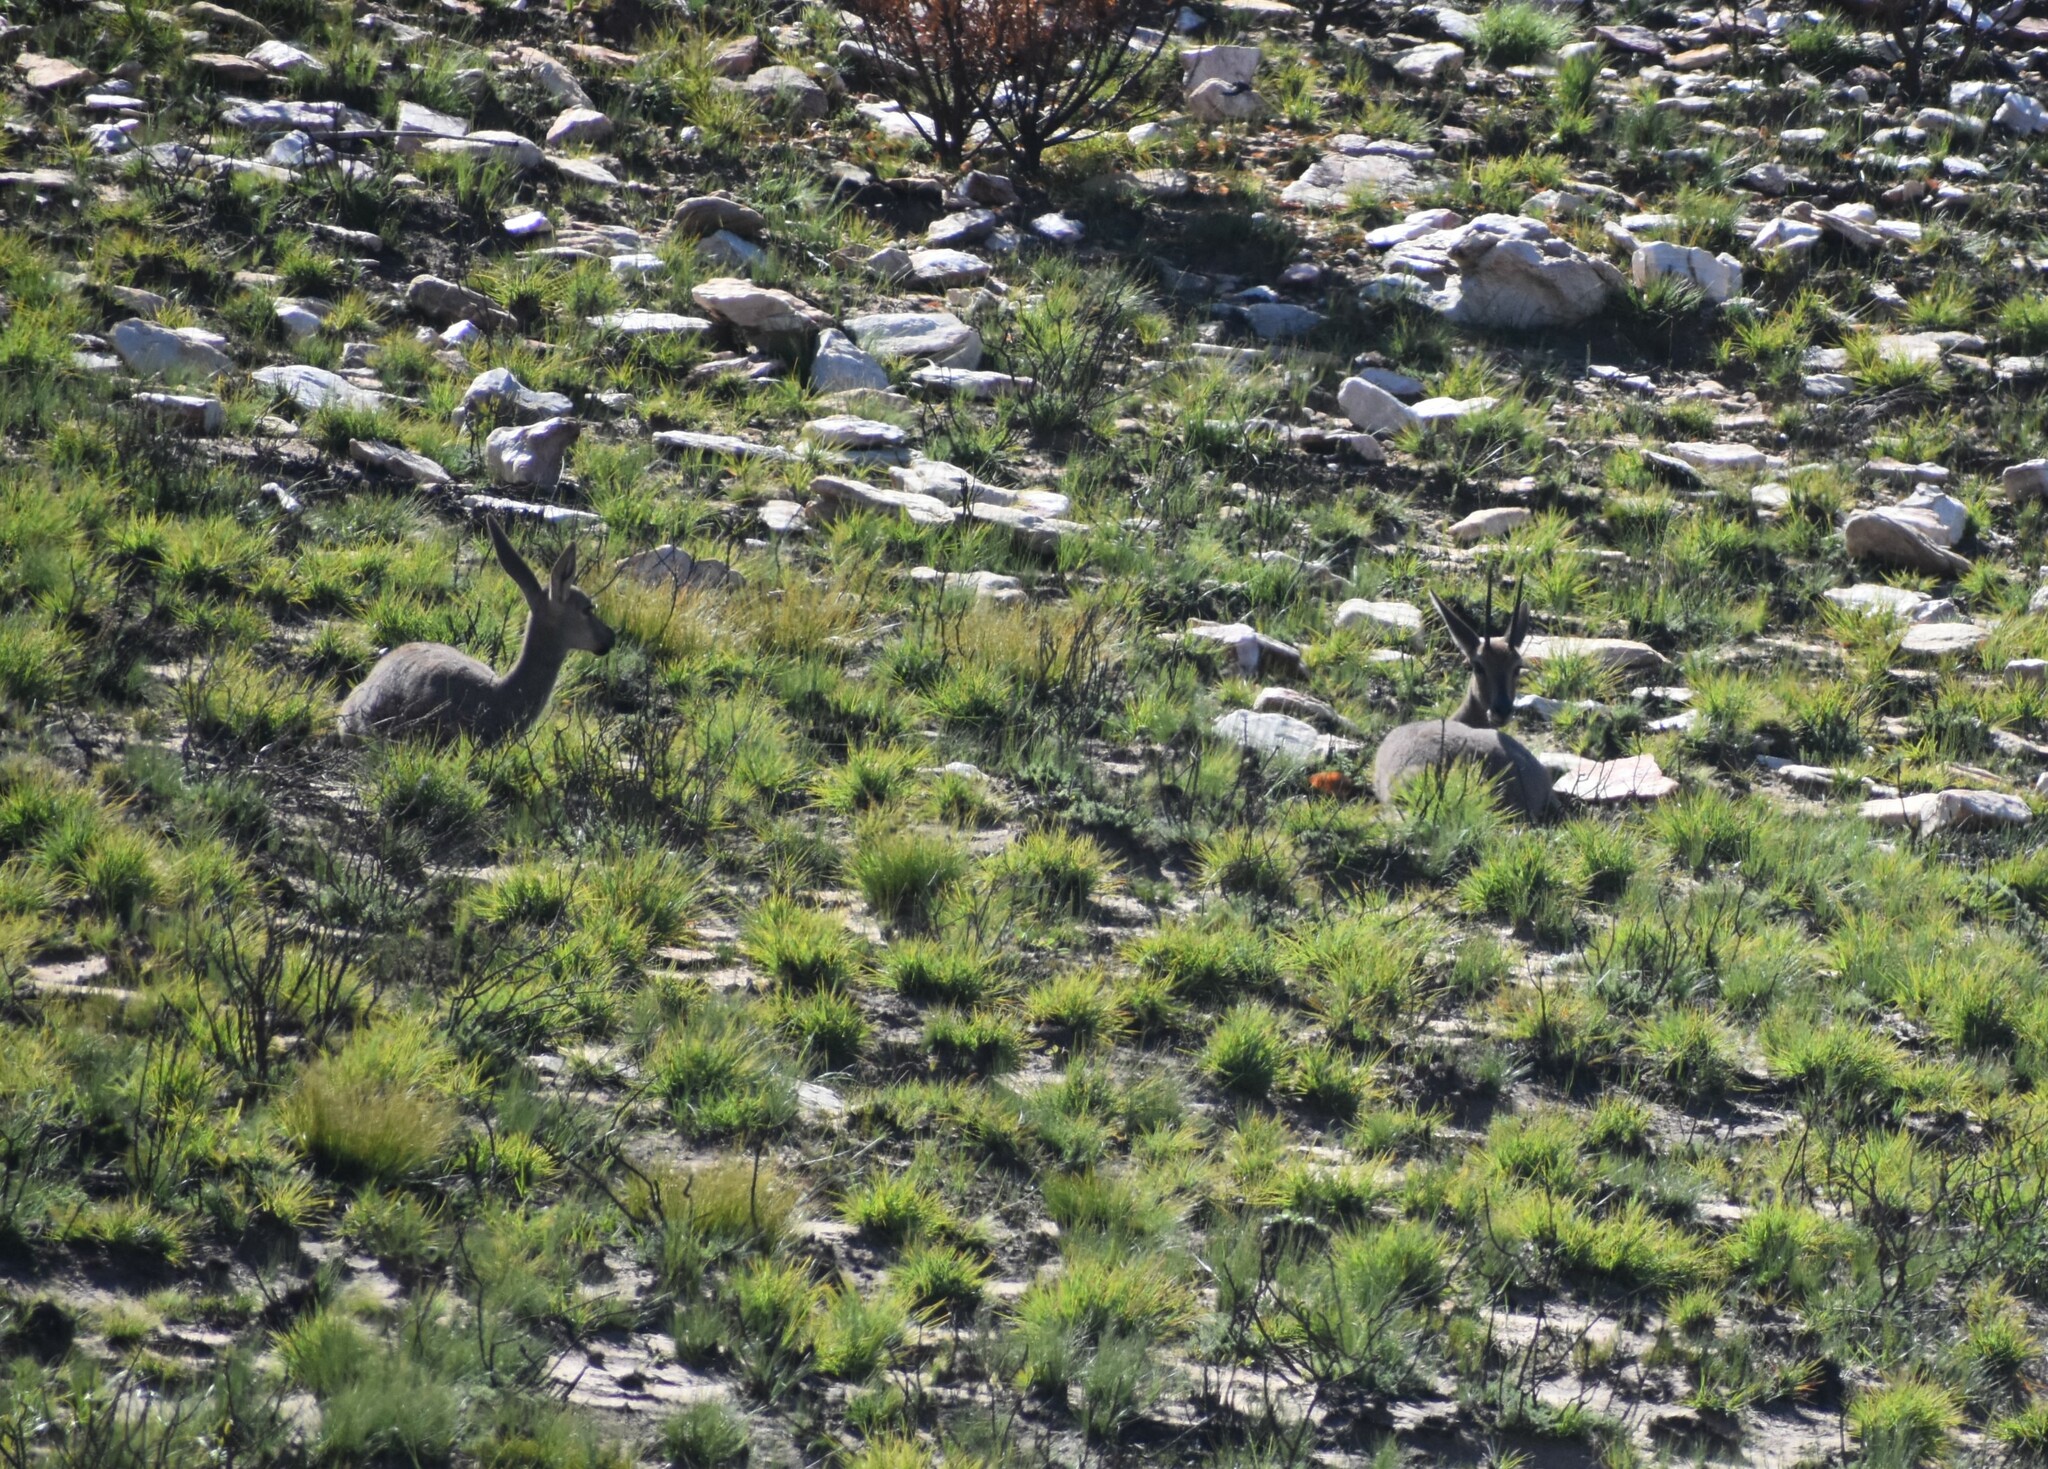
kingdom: Animalia
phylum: Chordata
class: Mammalia
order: Artiodactyla
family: Bovidae
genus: Pelea
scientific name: Pelea capreolus
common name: Common rhebok
